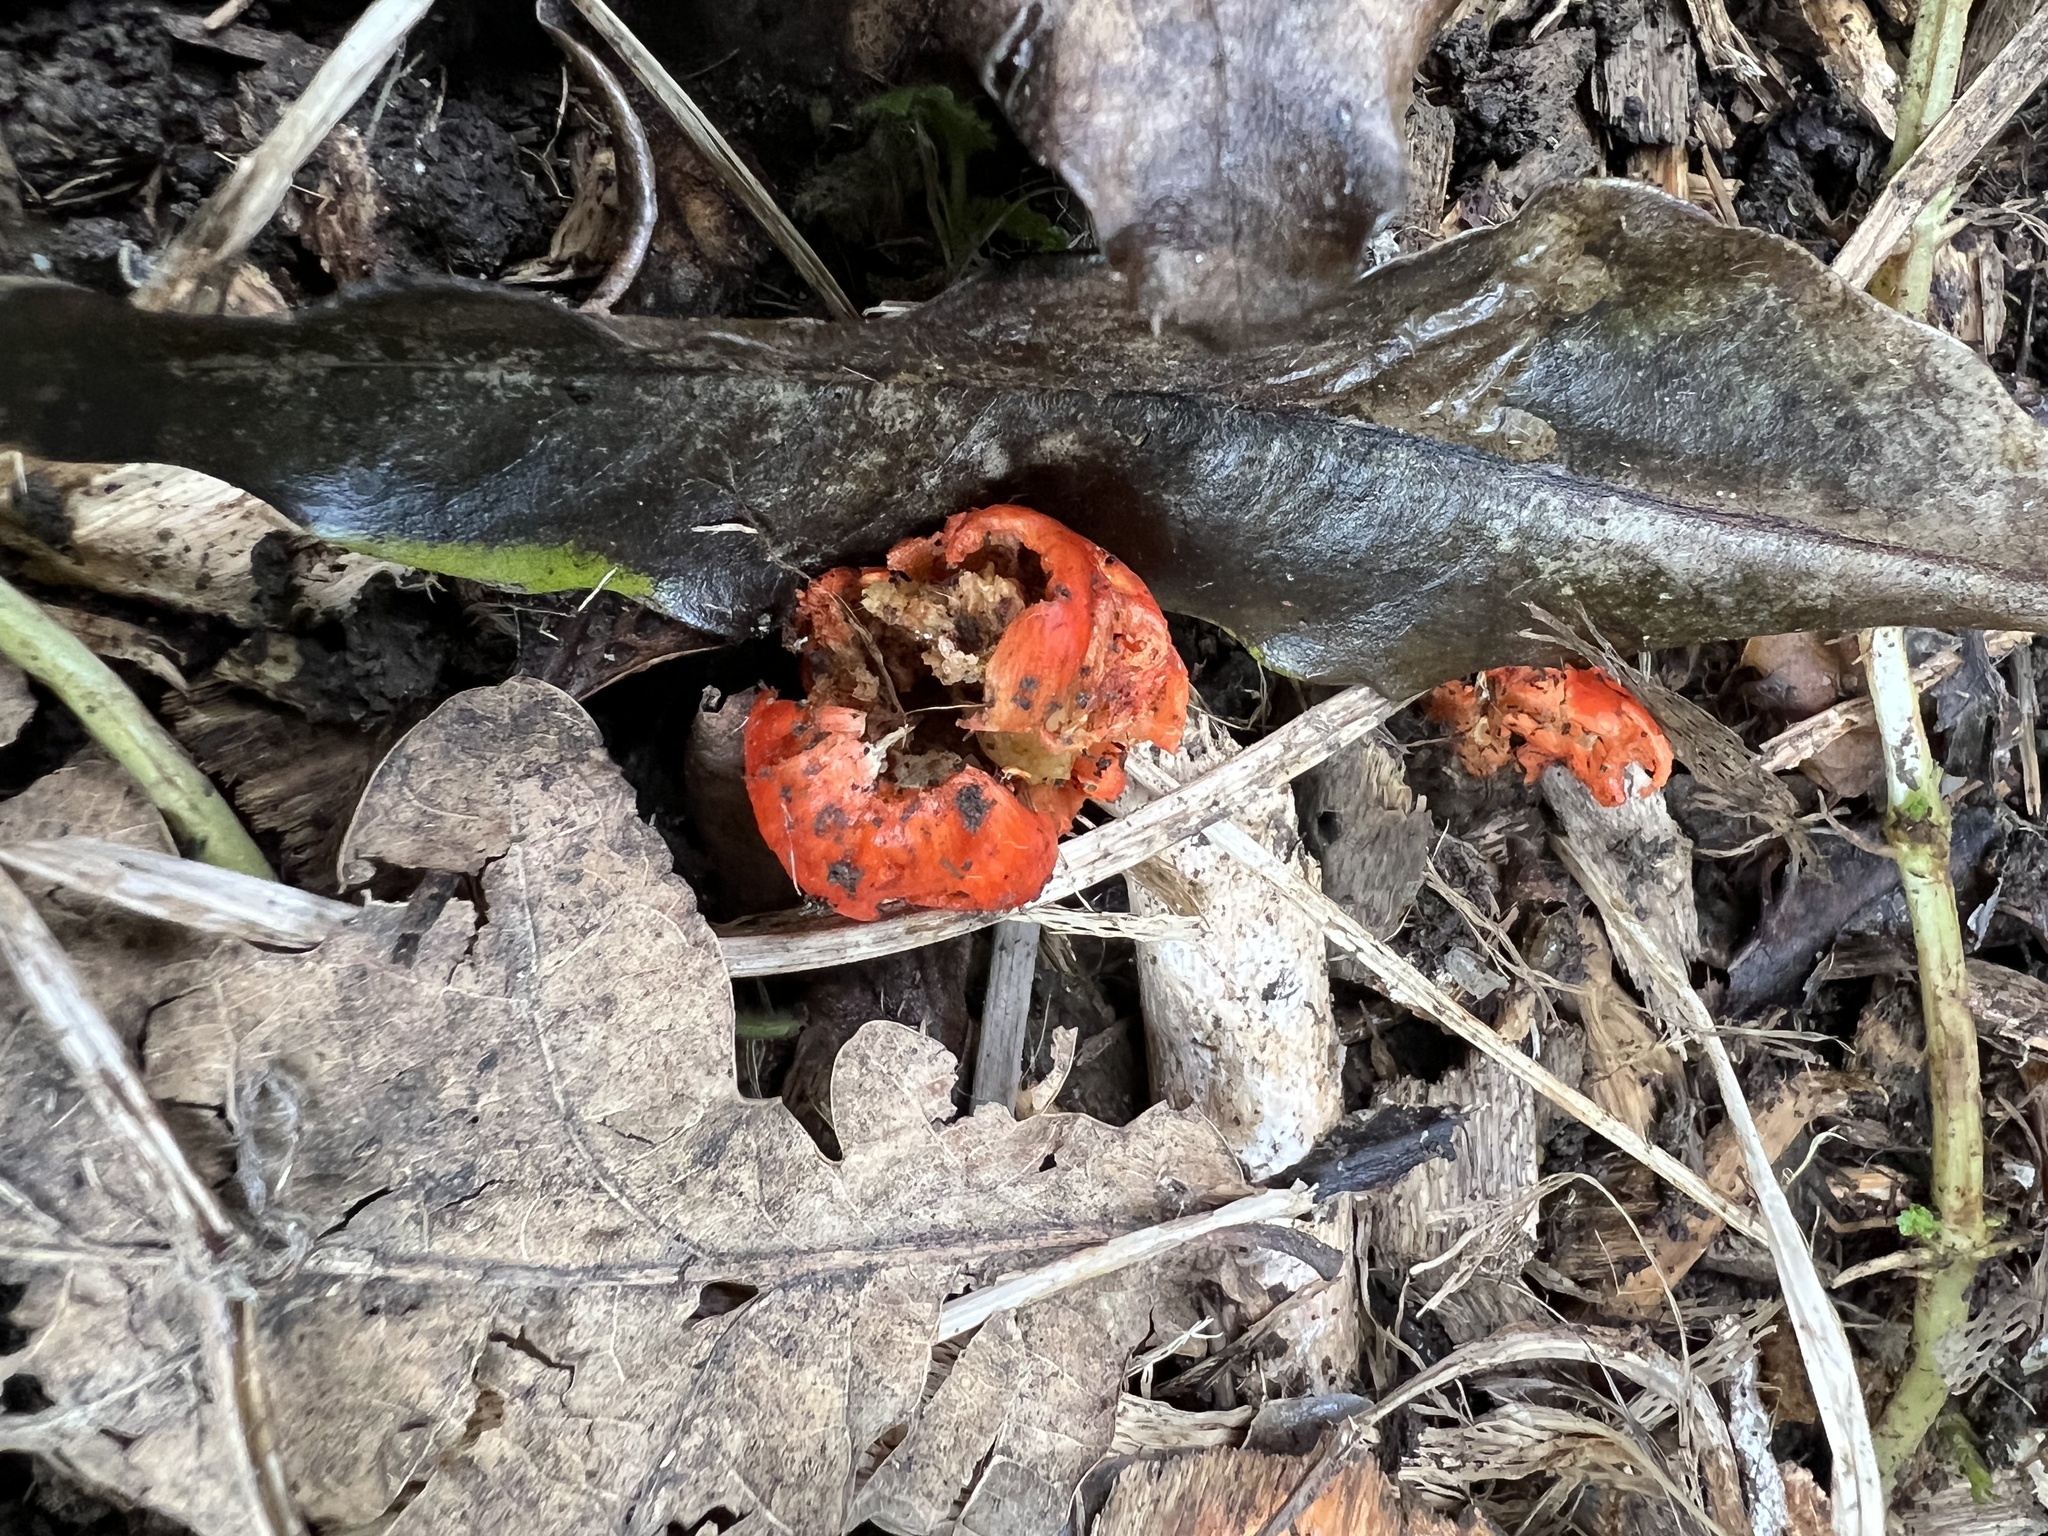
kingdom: Fungi
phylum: Basidiomycota
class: Agaricomycetes
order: Agaricales
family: Strophariaceae
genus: Leratiomyces
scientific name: Leratiomyces erythrocephalus
